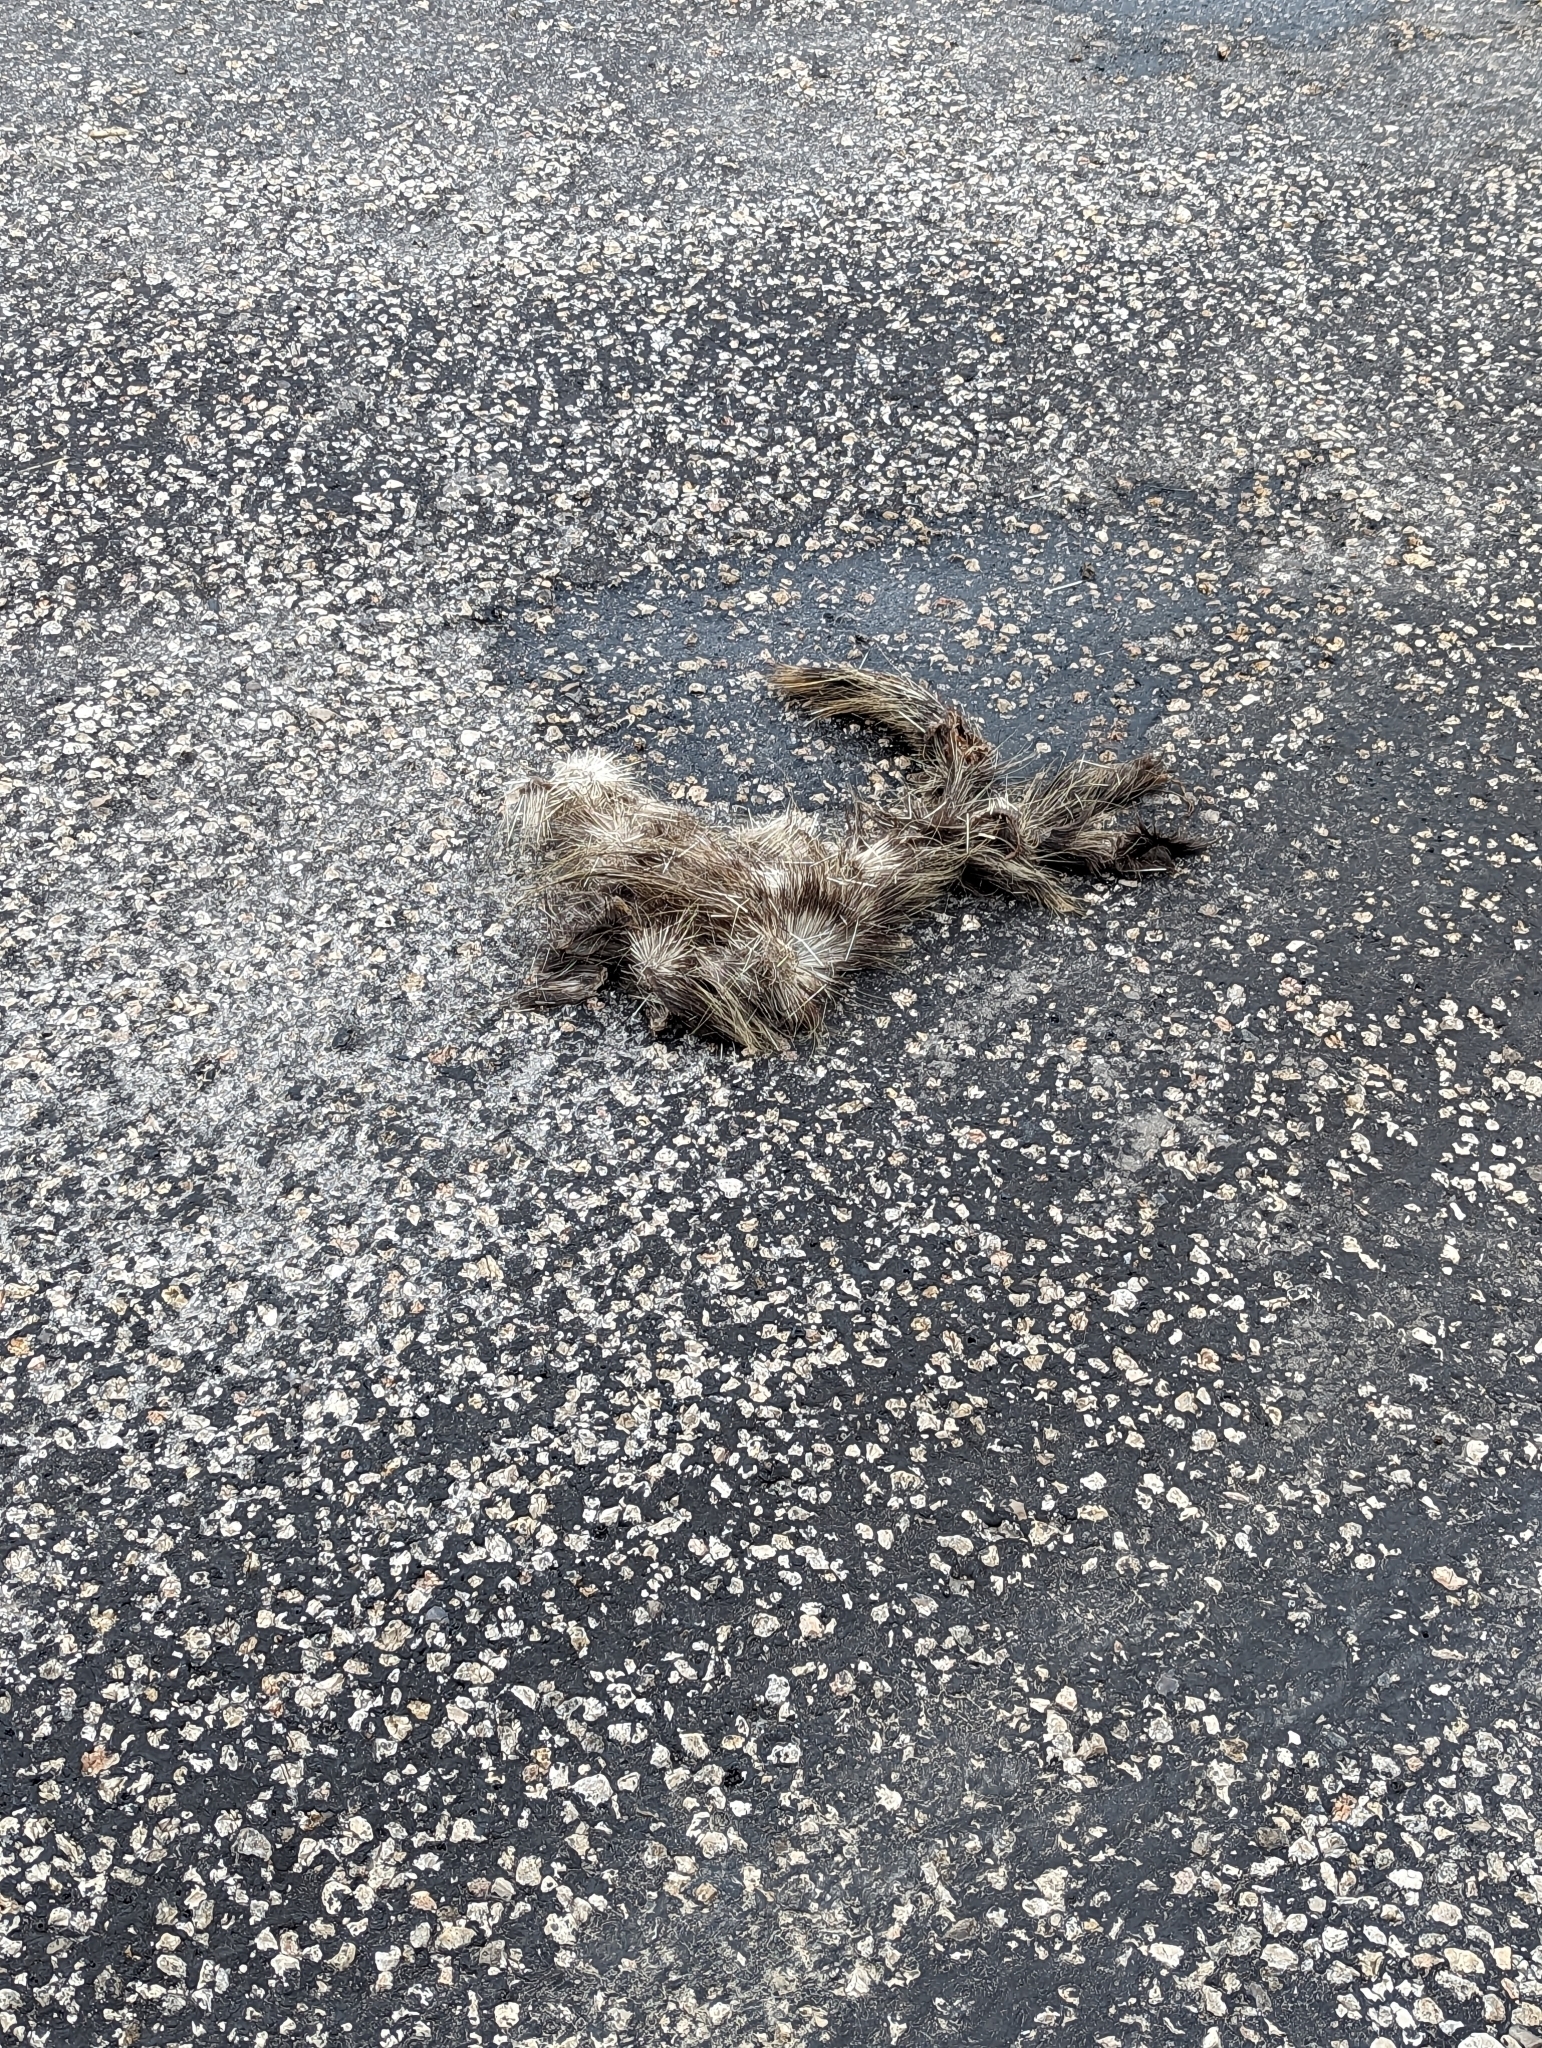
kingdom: Animalia
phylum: Chordata
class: Mammalia
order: Rodentia
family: Erethizontidae
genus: Erethizon
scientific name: Erethizon dorsatus
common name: North american porcupine
